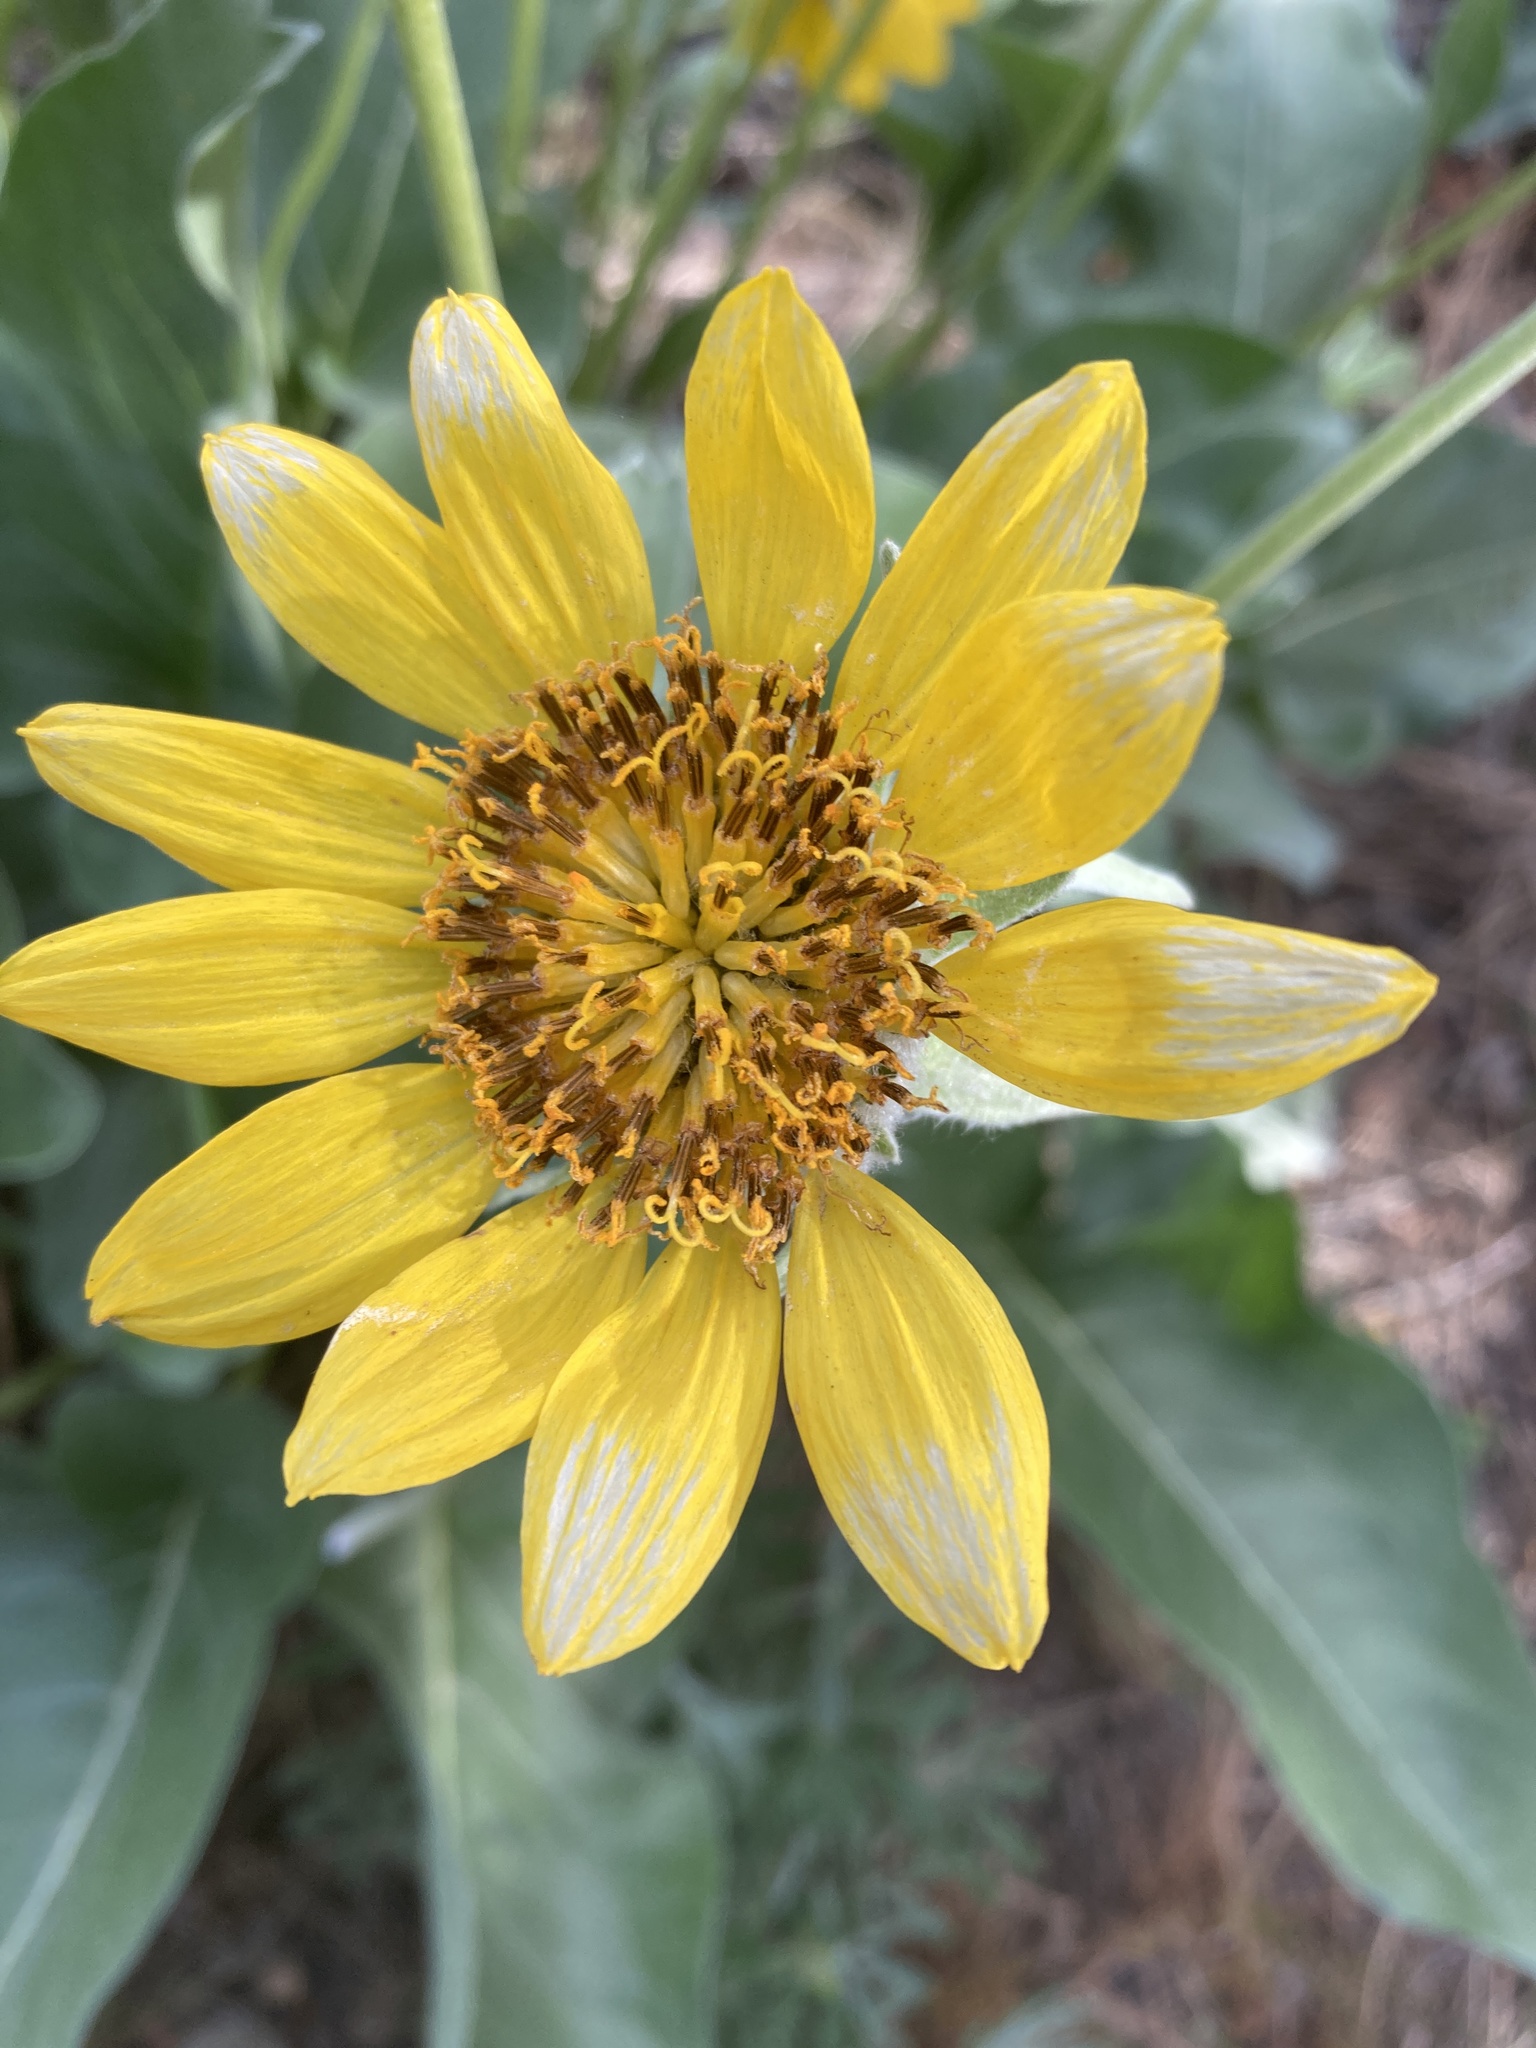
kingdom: Plantae
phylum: Tracheophyta
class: Magnoliopsida
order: Asterales
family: Asteraceae
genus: Wyethia
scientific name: Wyethia sagittata
